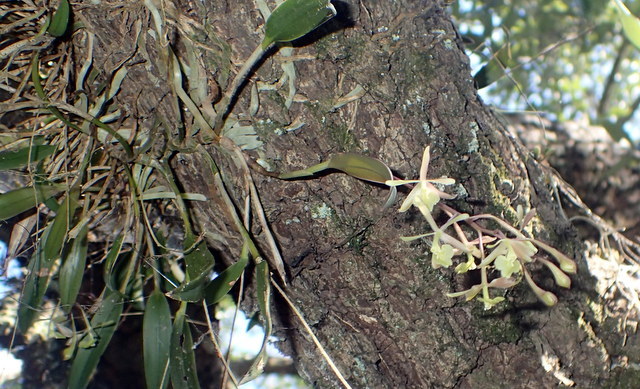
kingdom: Plantae
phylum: Tracheophyta
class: Liliopsida
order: Asparagales
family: Orchidaceae
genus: Epidendrum
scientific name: Epidendrum conopseum
